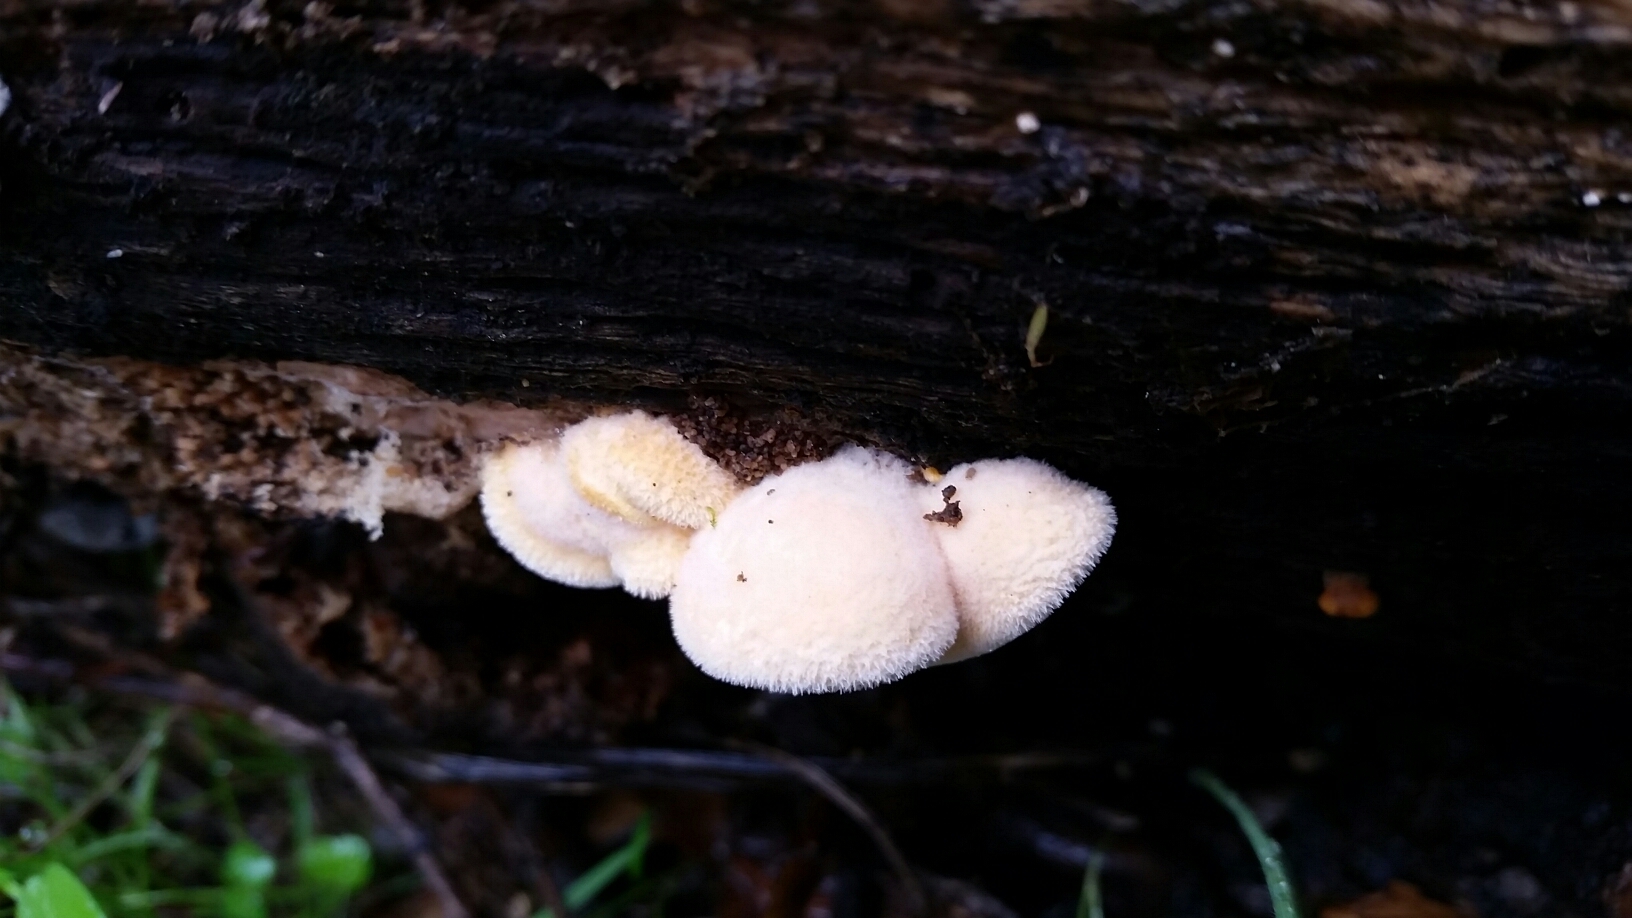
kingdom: Fungi
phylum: Basidiomycota
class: Agaricomycetes
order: Agaricales
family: Phyllotopsidaceae
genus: Phyllotopsis
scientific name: Phyllotopsis nidulans
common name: Orange mock oyster
